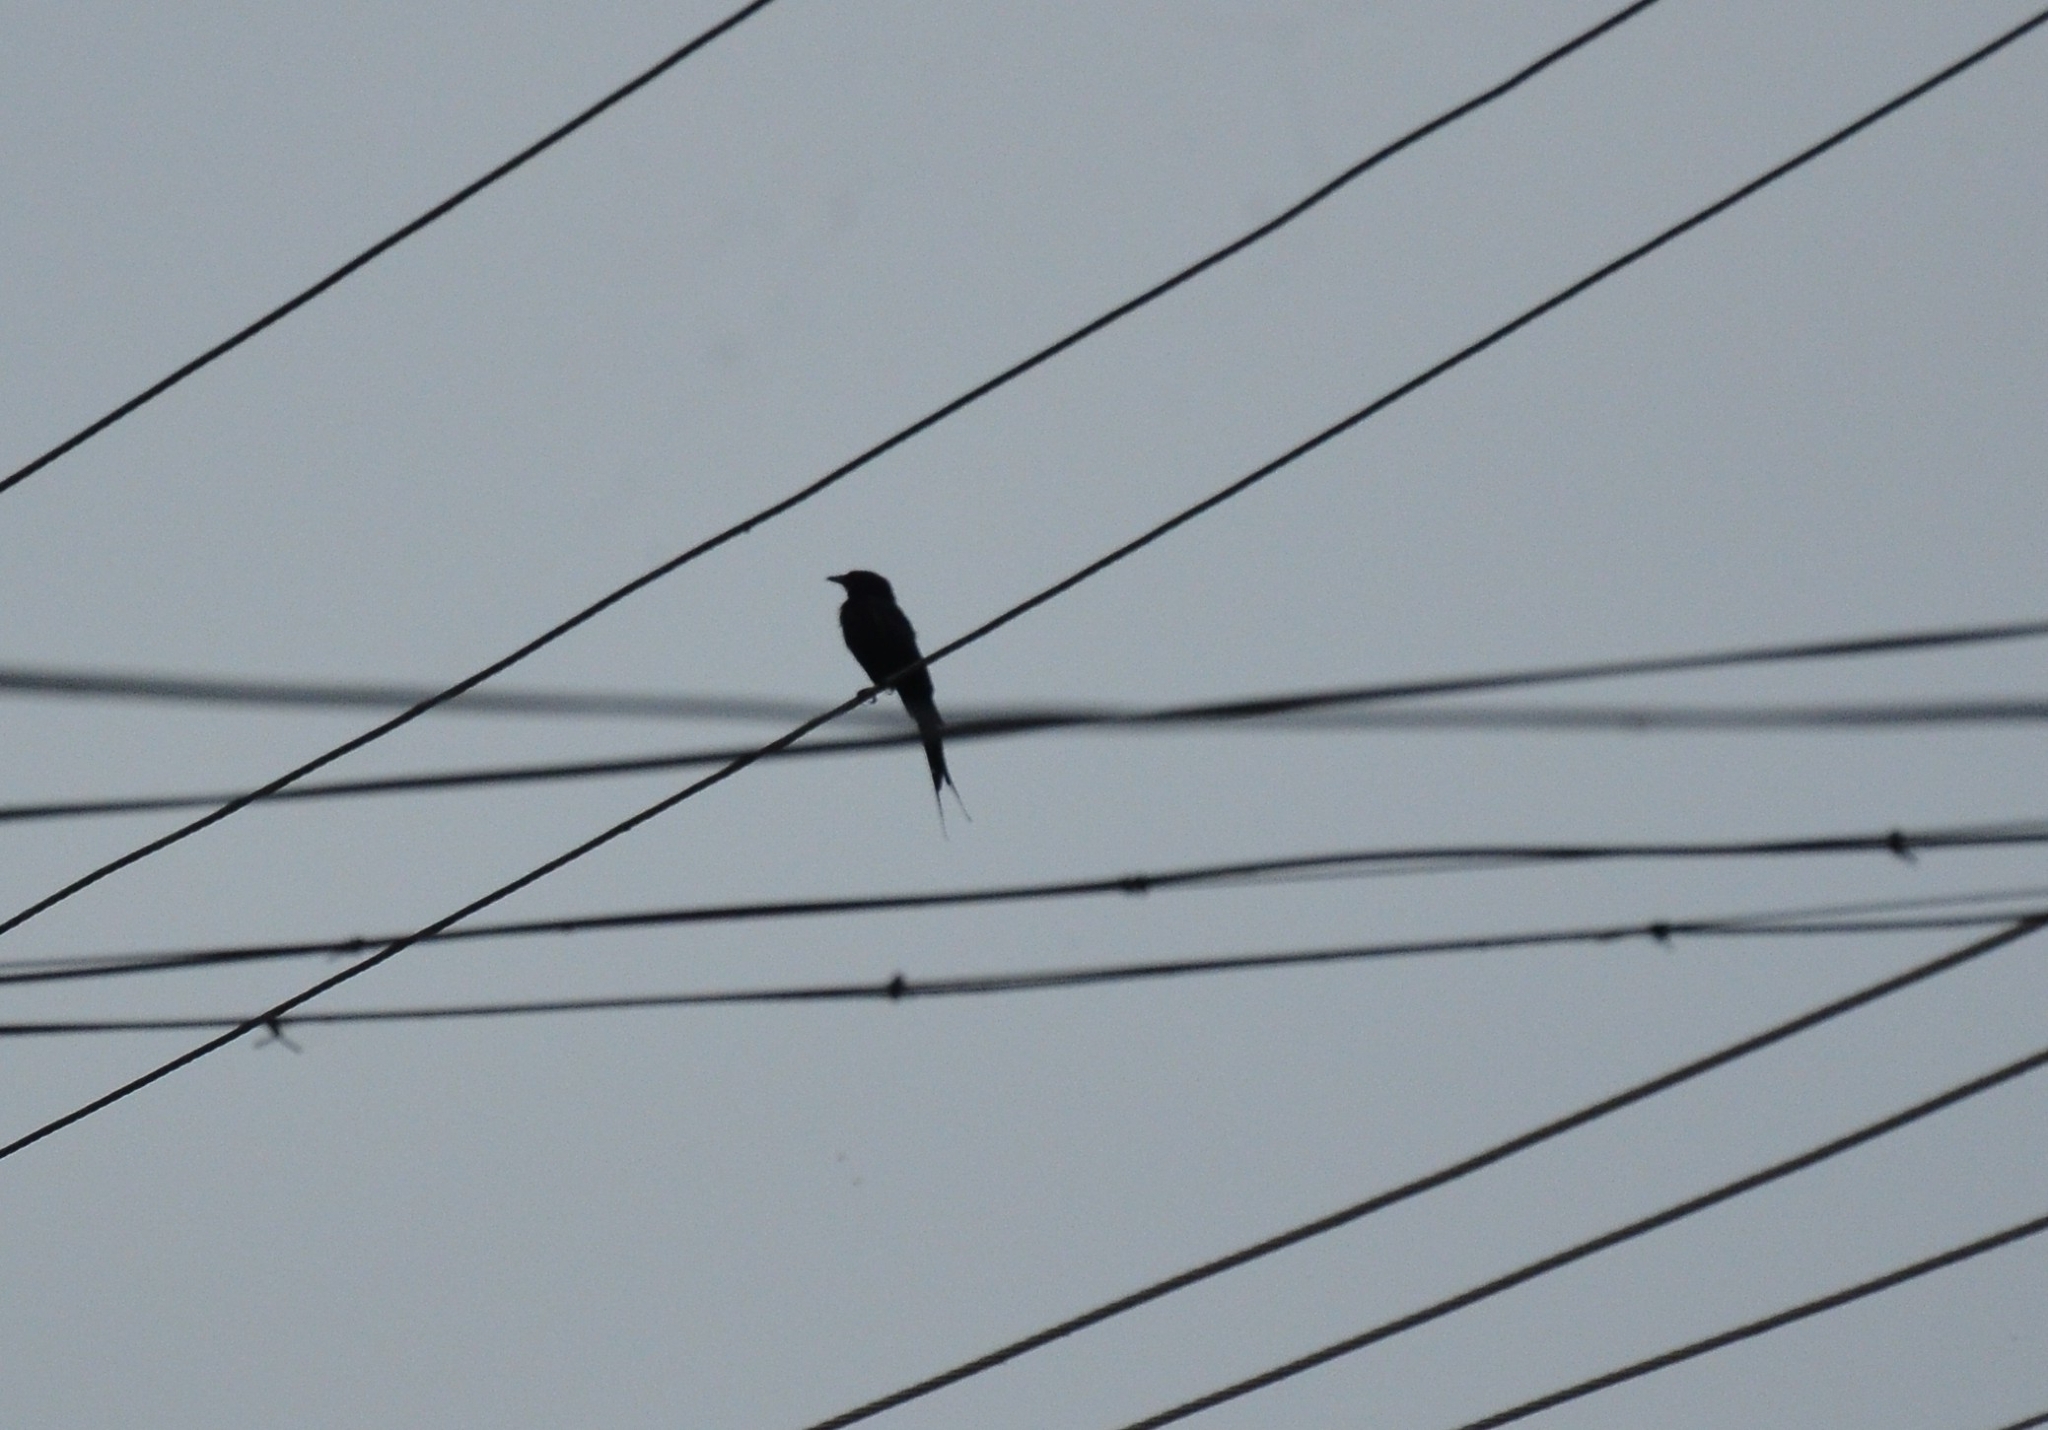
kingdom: Animalia
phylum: Chordata
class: Aves
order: Passeriformes
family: Dicruridae
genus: Dicrurus
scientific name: Dicrurus macrocercus
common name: Black drongo
